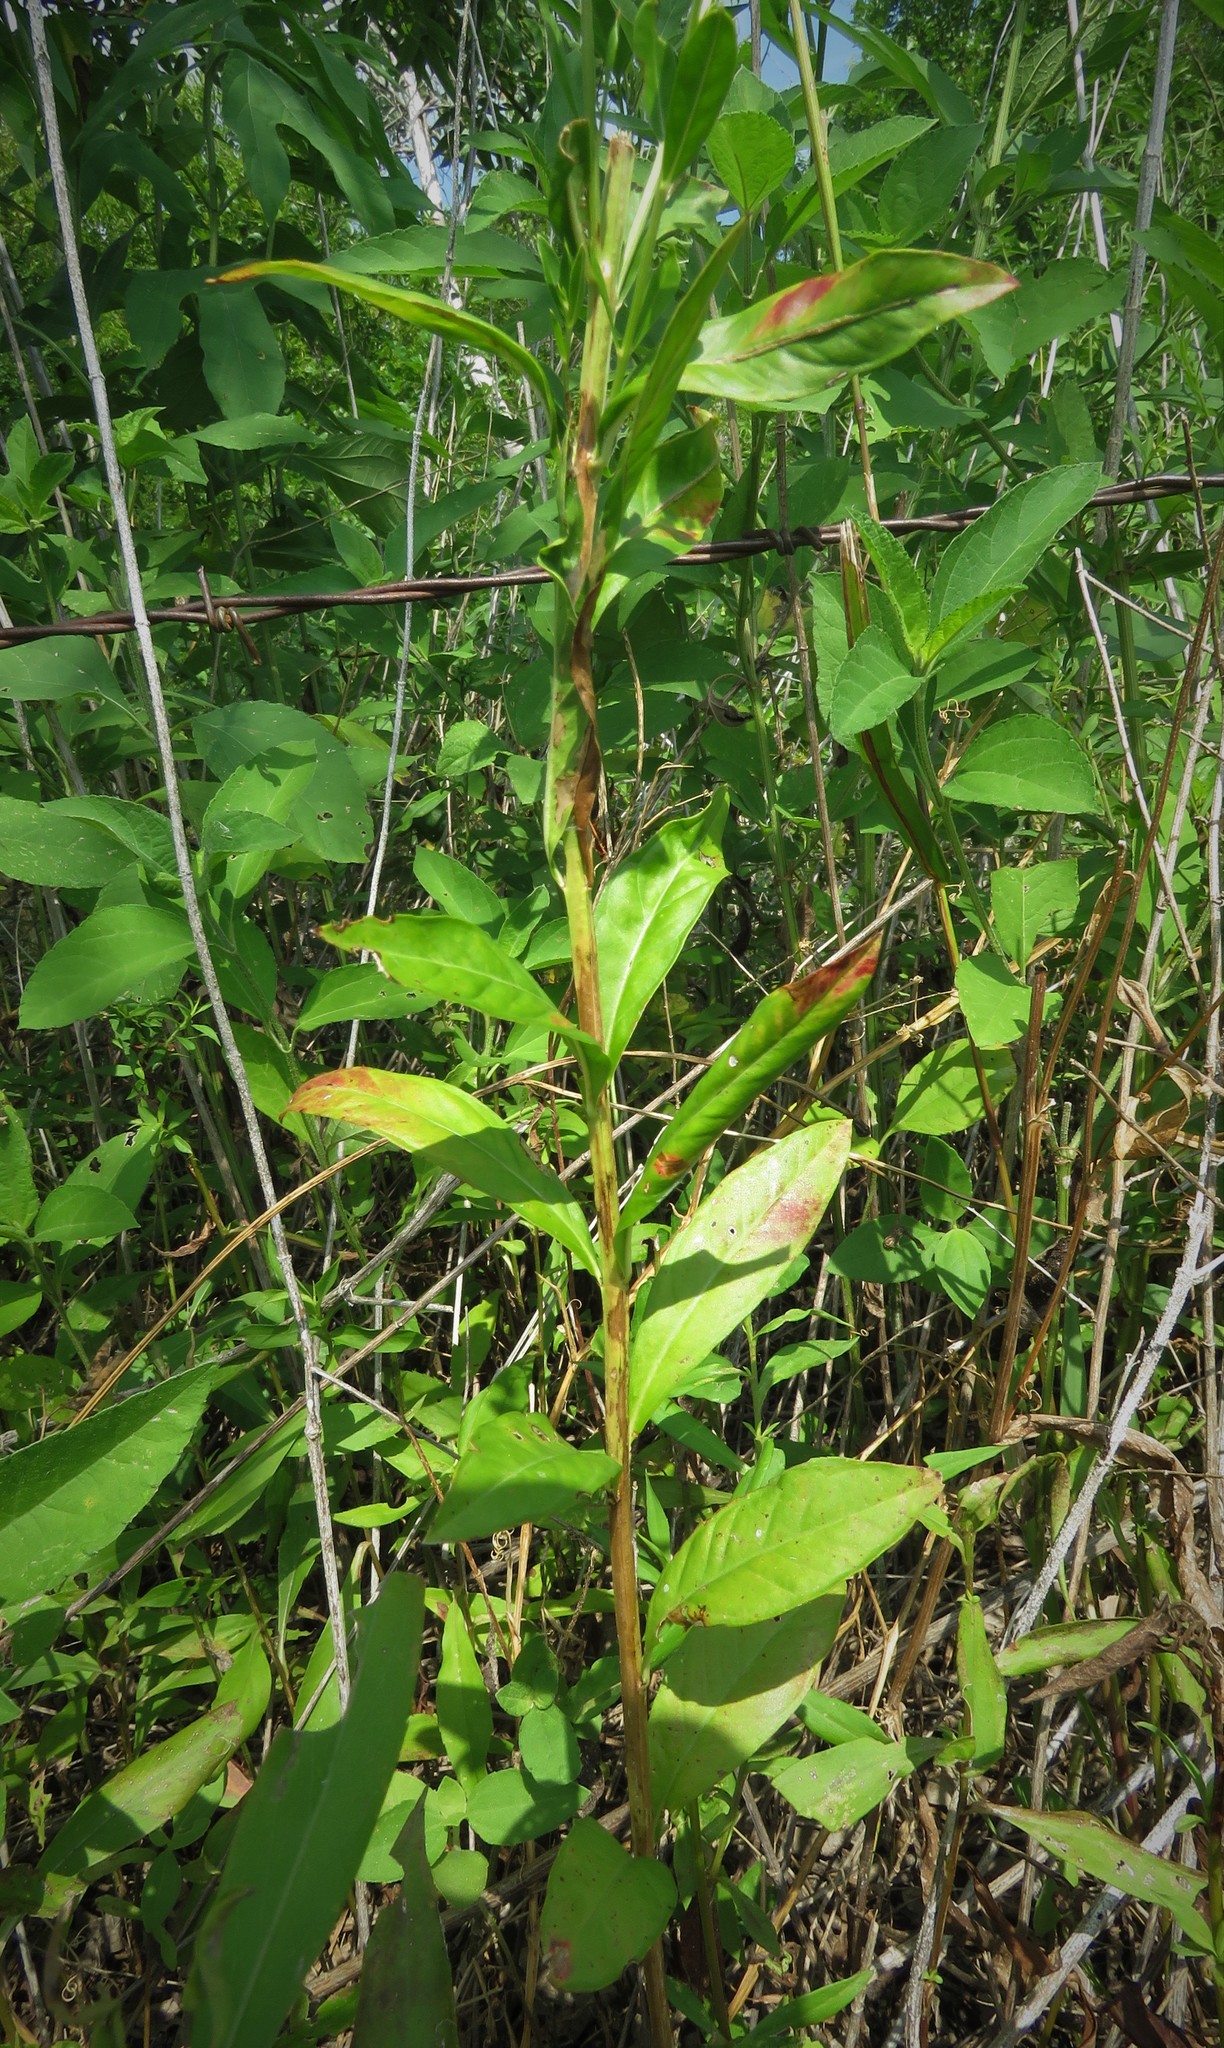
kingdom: Plantae
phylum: Tracheophyta
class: Magnoliopsida
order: Myrtales
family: Lythraceae
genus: Lythrum
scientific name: Lythrum alatum
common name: Winged loosestrife
